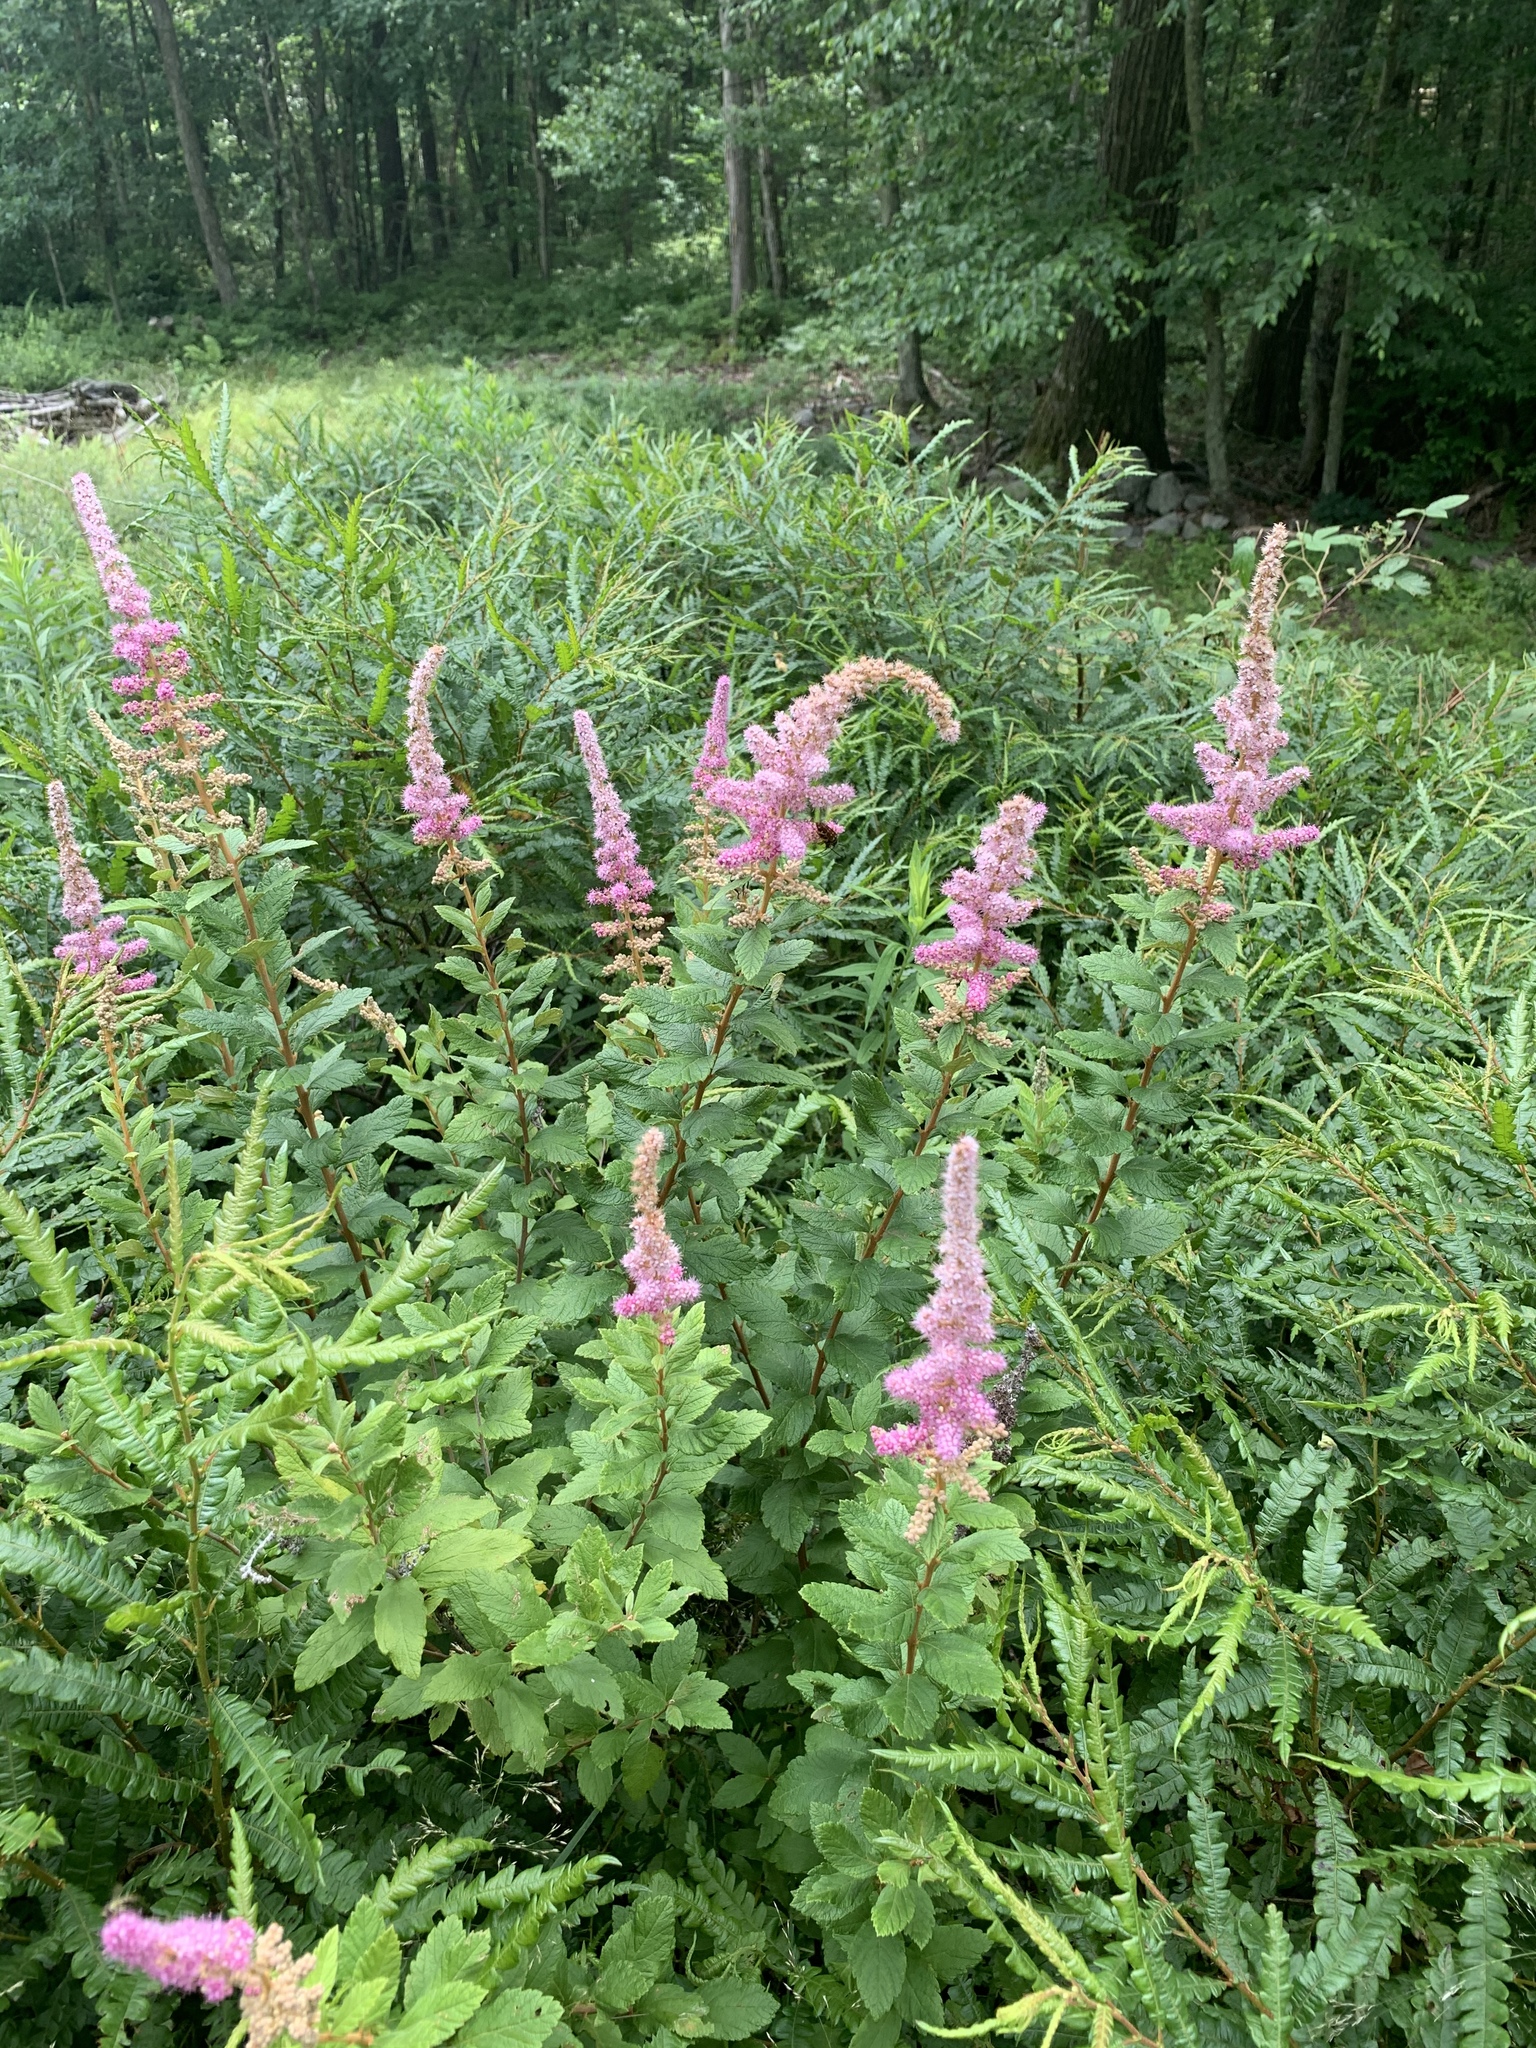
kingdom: Plantae
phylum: Tracheophyta
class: Magnoliopsida
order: Rosales
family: Rosaceae
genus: Spiraea
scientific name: Spiraea tomentosa
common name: Hardhack
